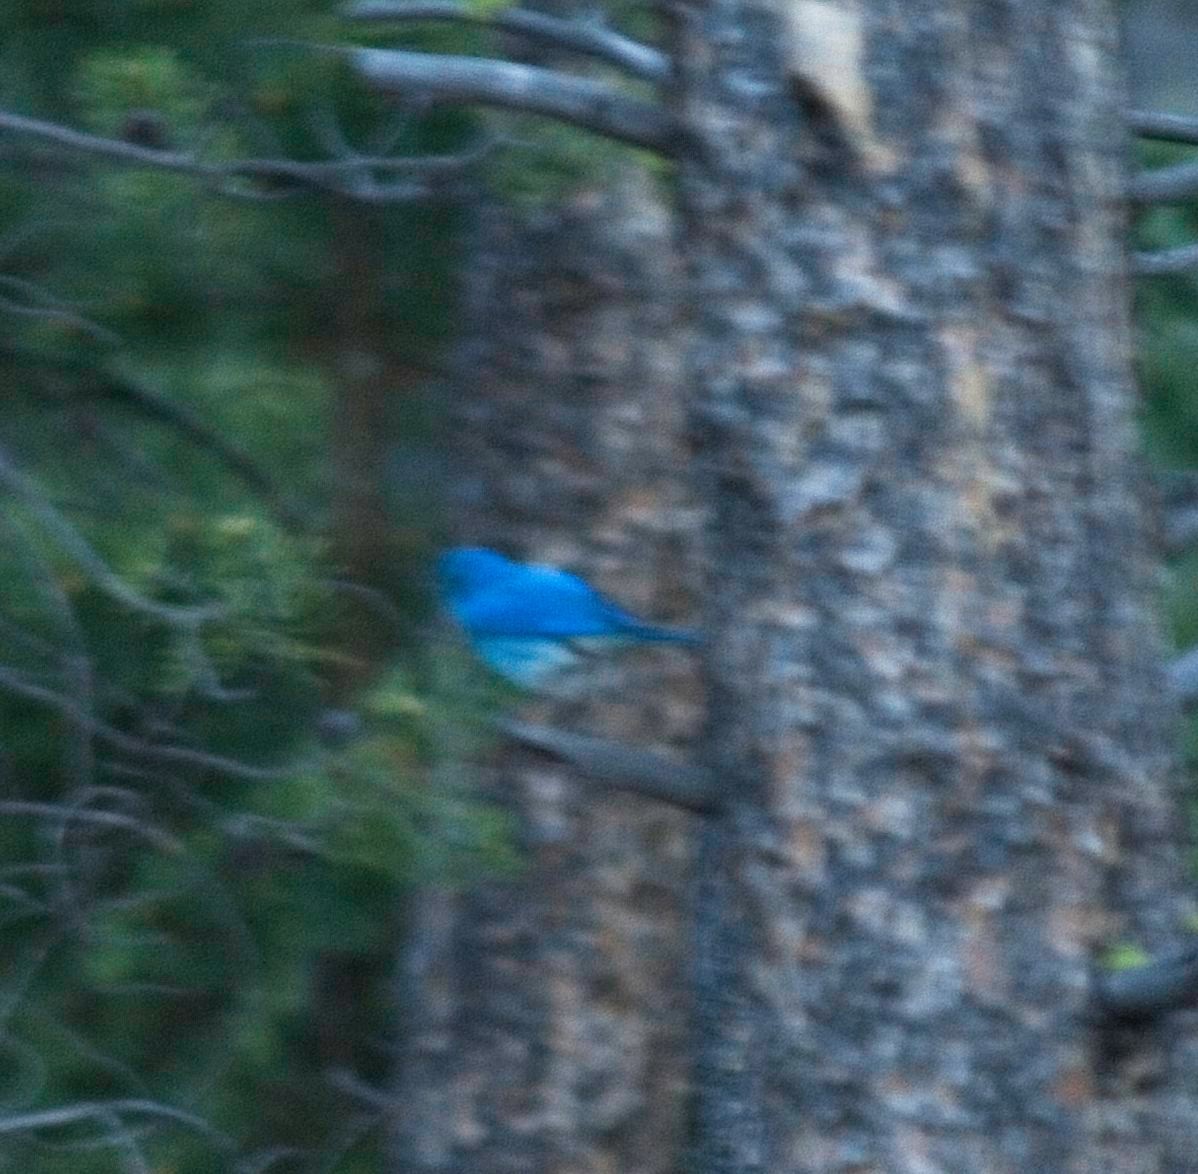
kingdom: Animalia
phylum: Chordata
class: Aves
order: Passeriformes
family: Turdidae
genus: Sialia
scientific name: Sialia currucoides
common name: Mountain bluebird
